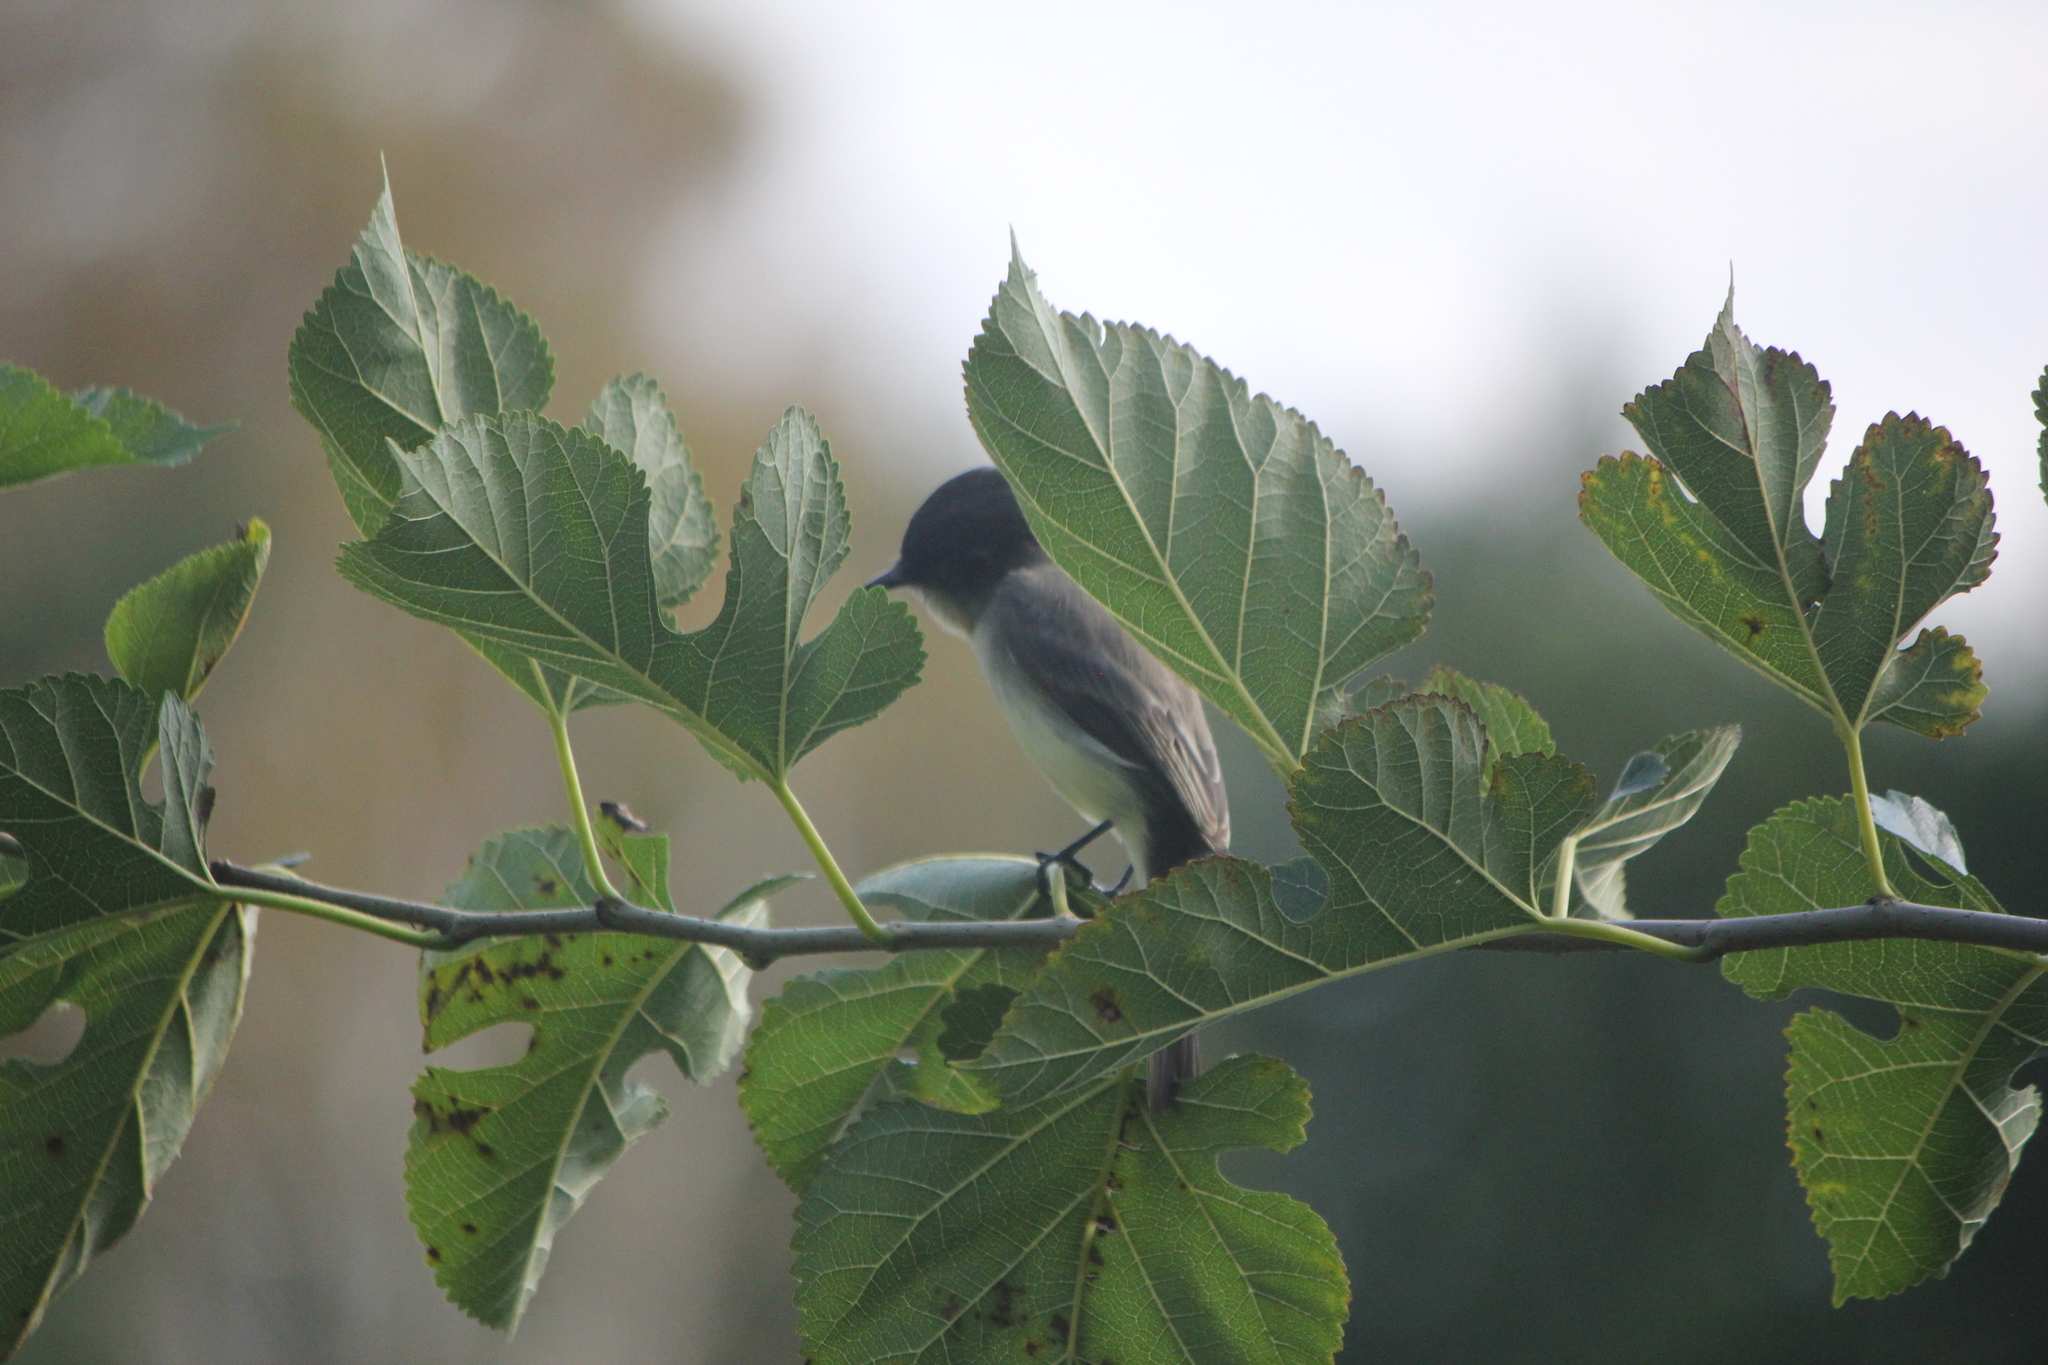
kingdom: Animalia
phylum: Chordata
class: Aves
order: Passeriformes
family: Tyrannidae
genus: Sayornis
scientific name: Sayornis phoebe
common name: Eastern phoebe
